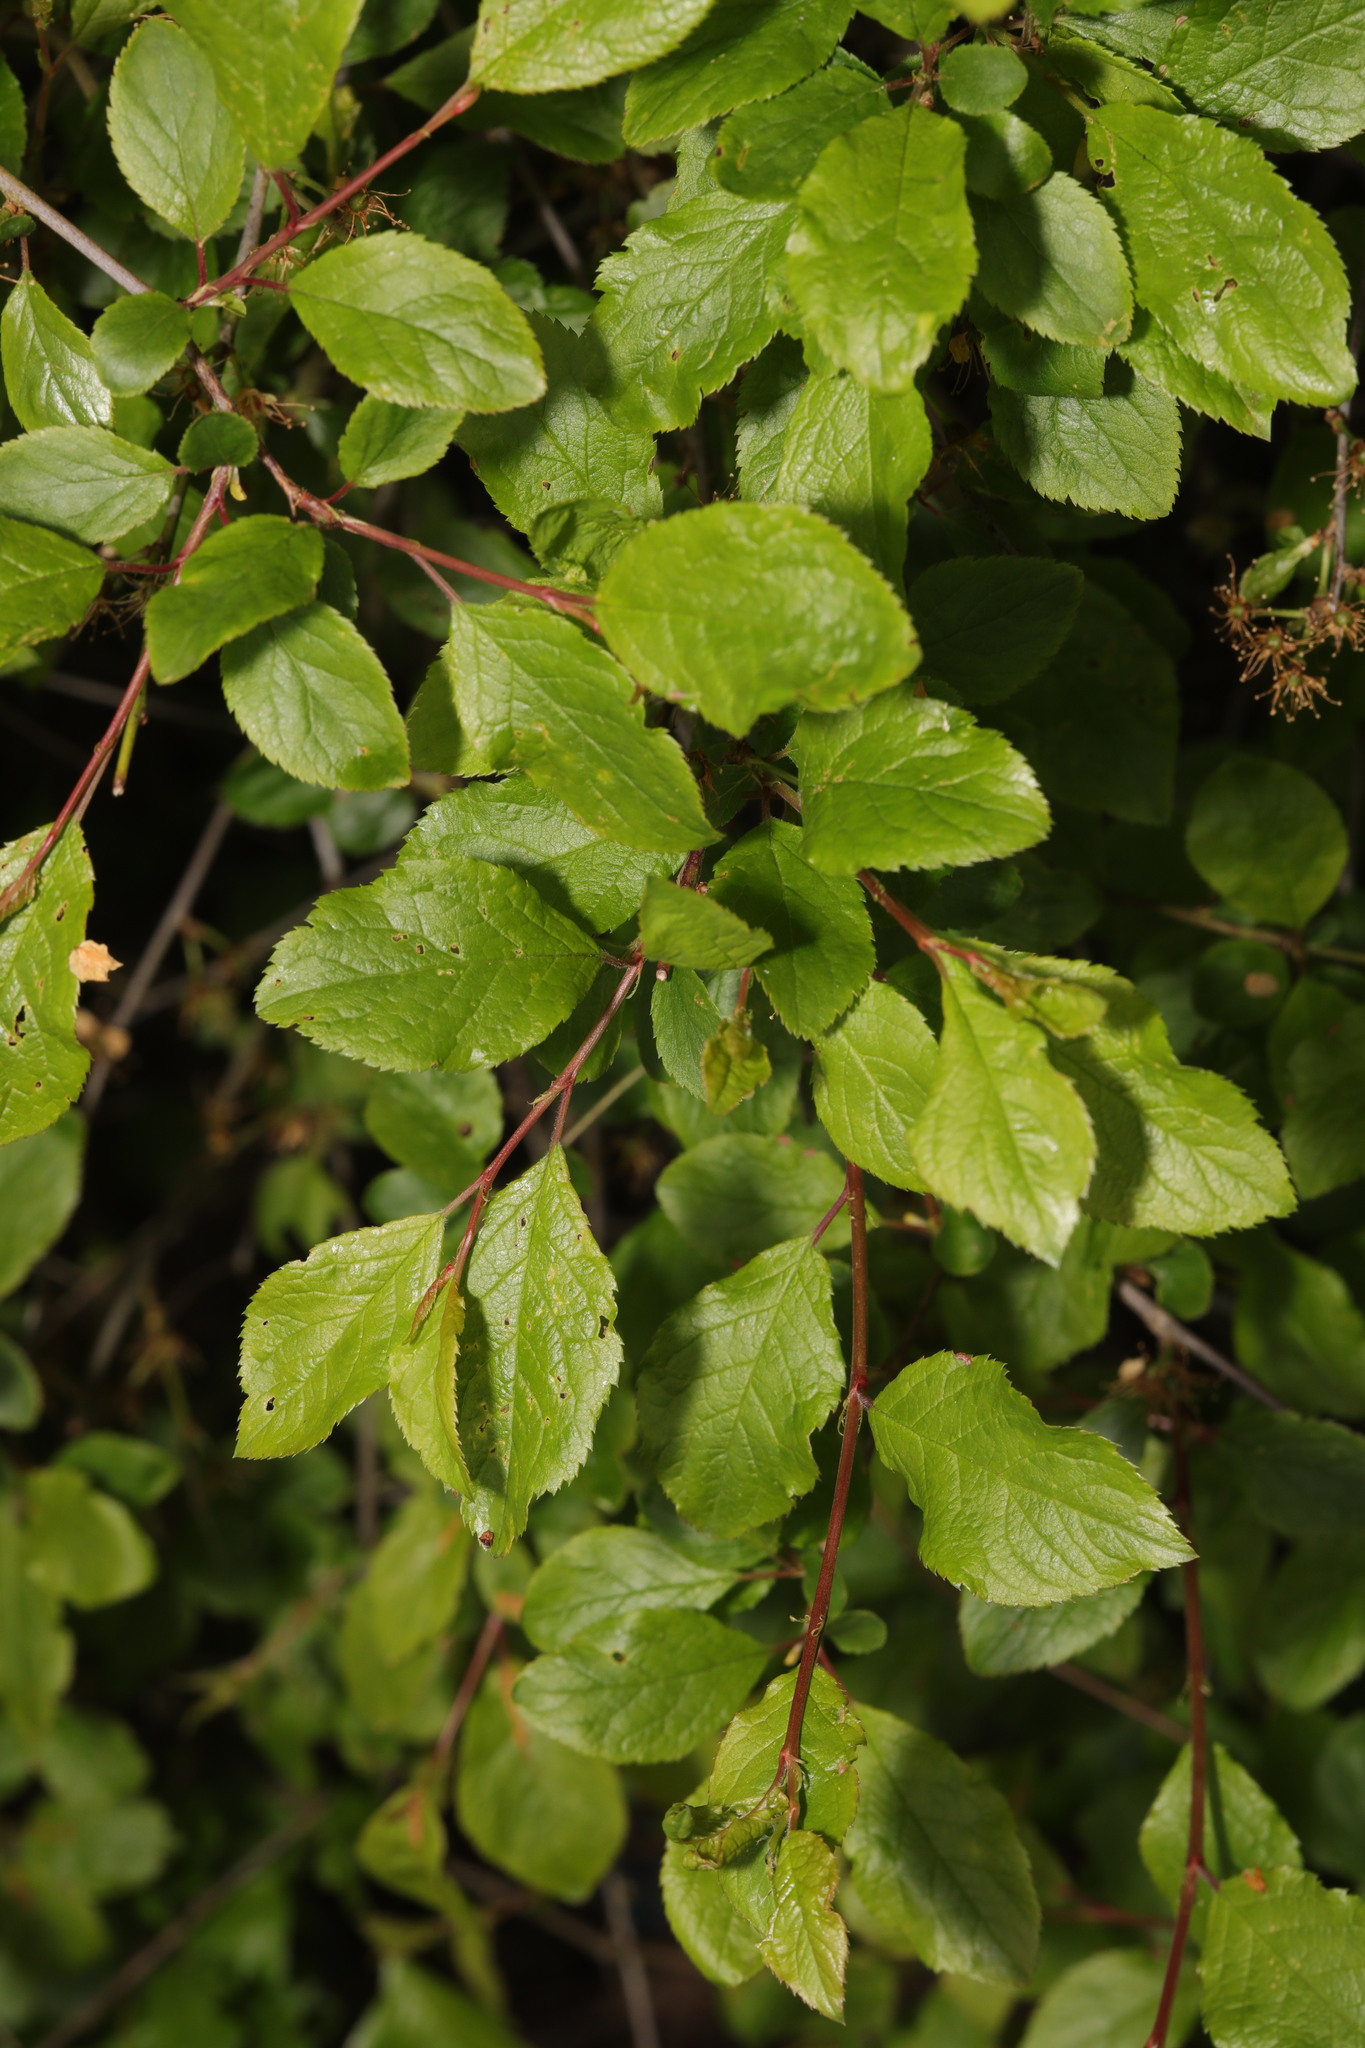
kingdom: Plantae
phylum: Tracheophyta
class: Magnoliopsida
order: Rosales
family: Rosaceae
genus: Prunus
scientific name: Prunus spinosa
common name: Blackthorn
